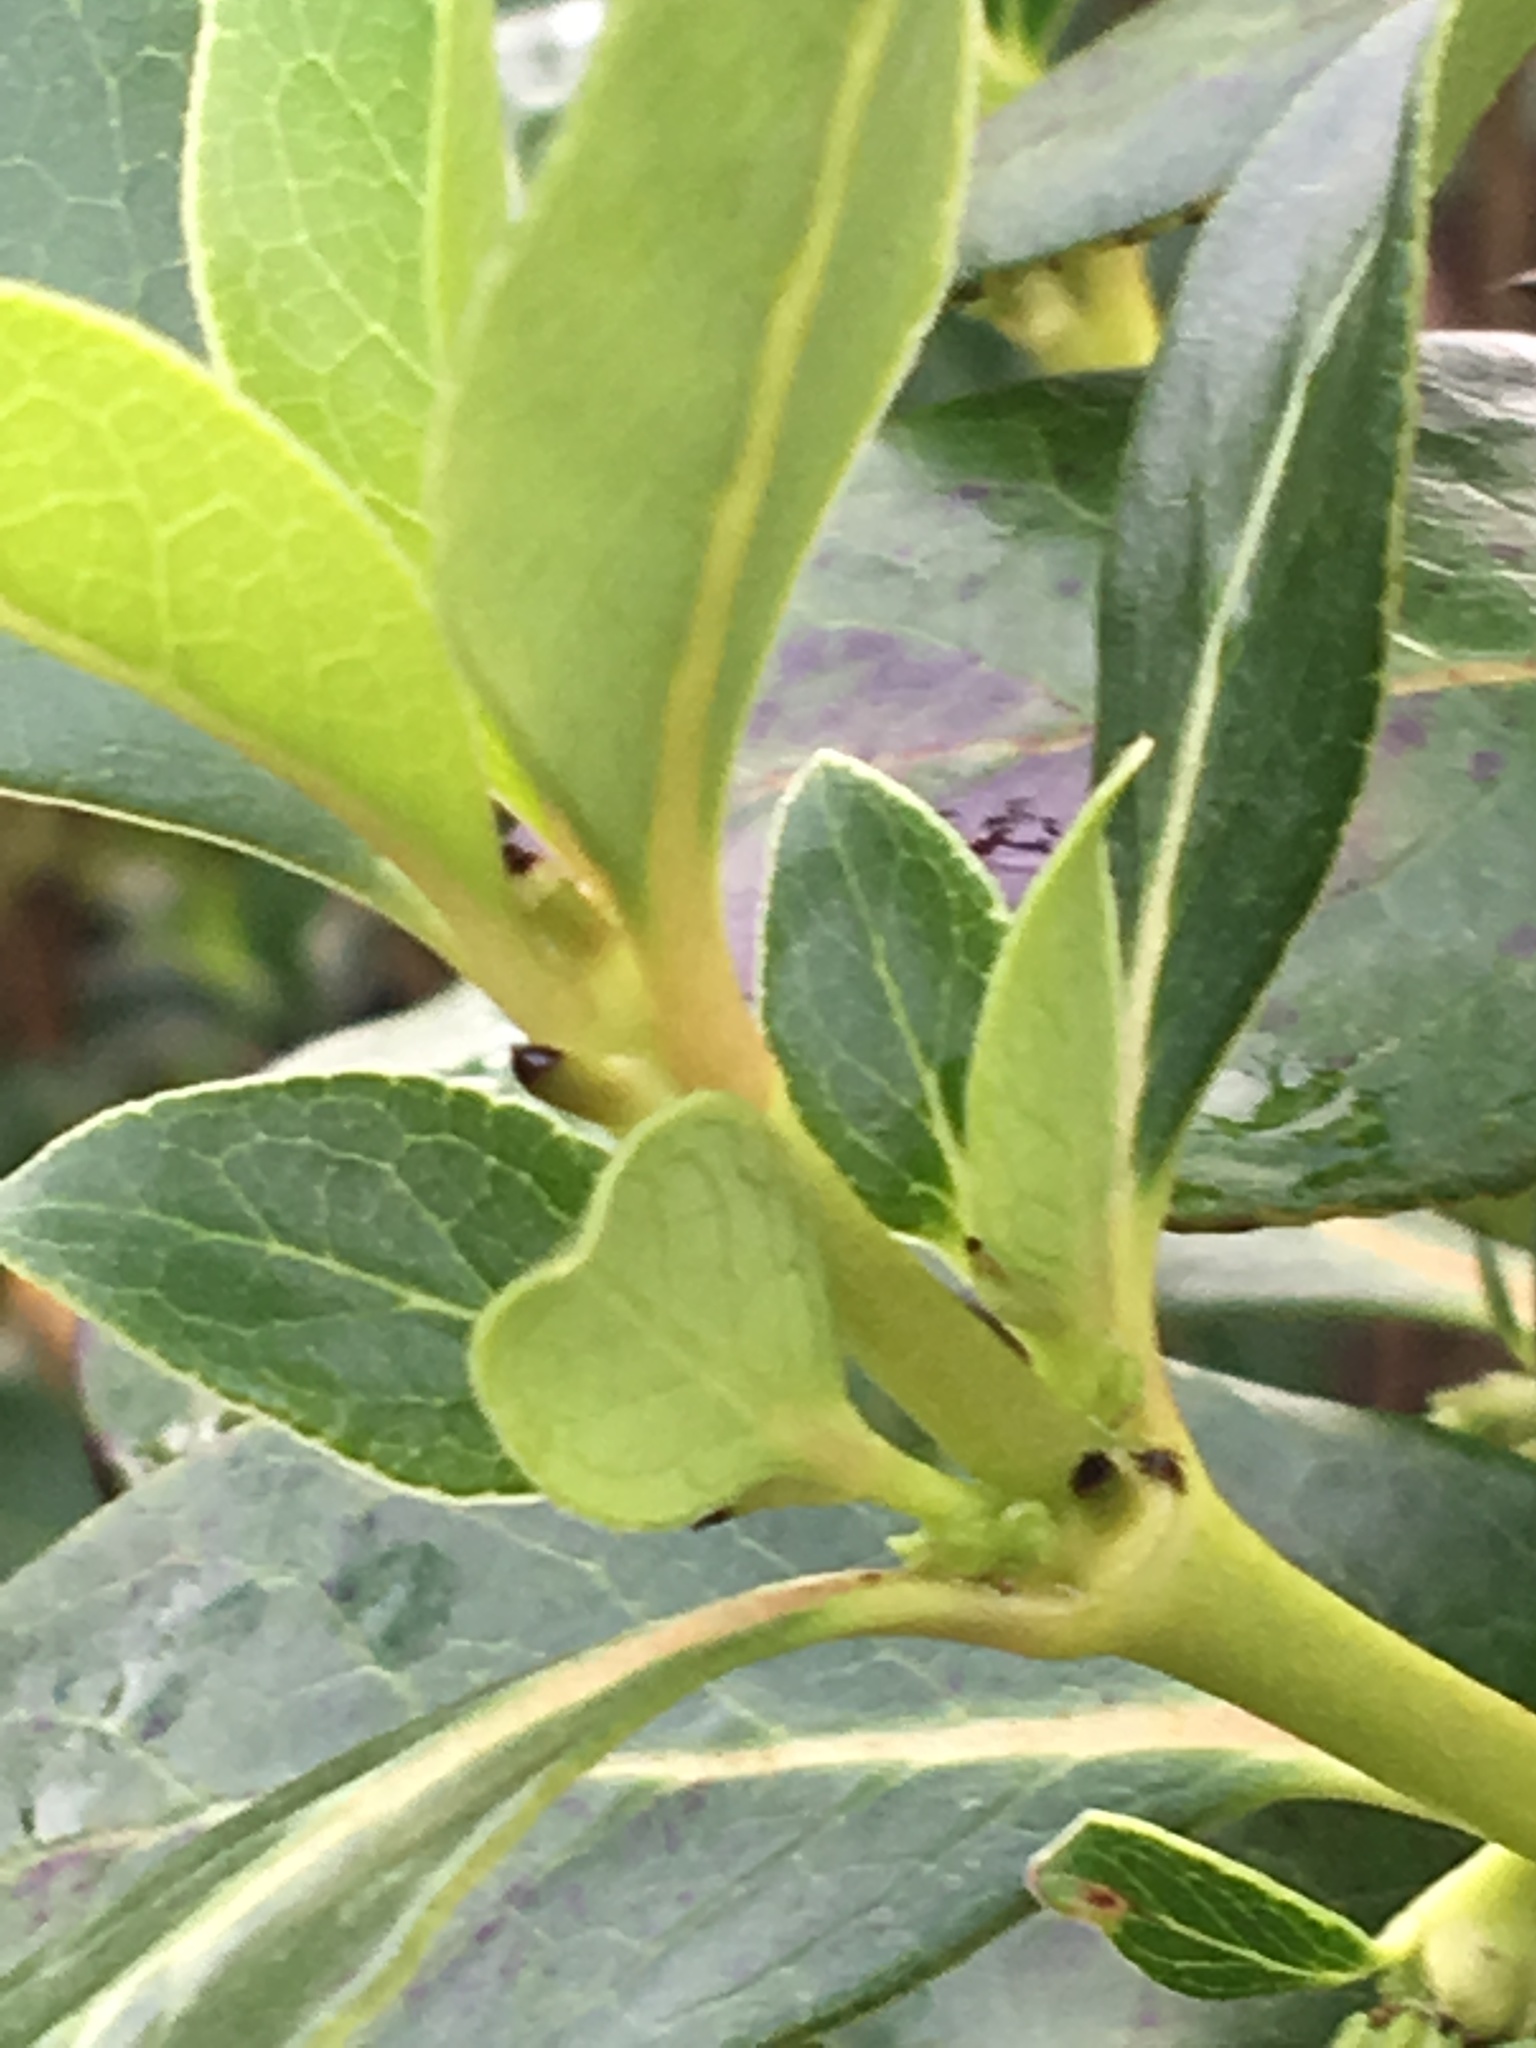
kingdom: Plantae
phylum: Tracheophyta
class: Magnoliopsida
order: Gentianales
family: Rubiaceae
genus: Coprosma
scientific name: Coprosma robusta
